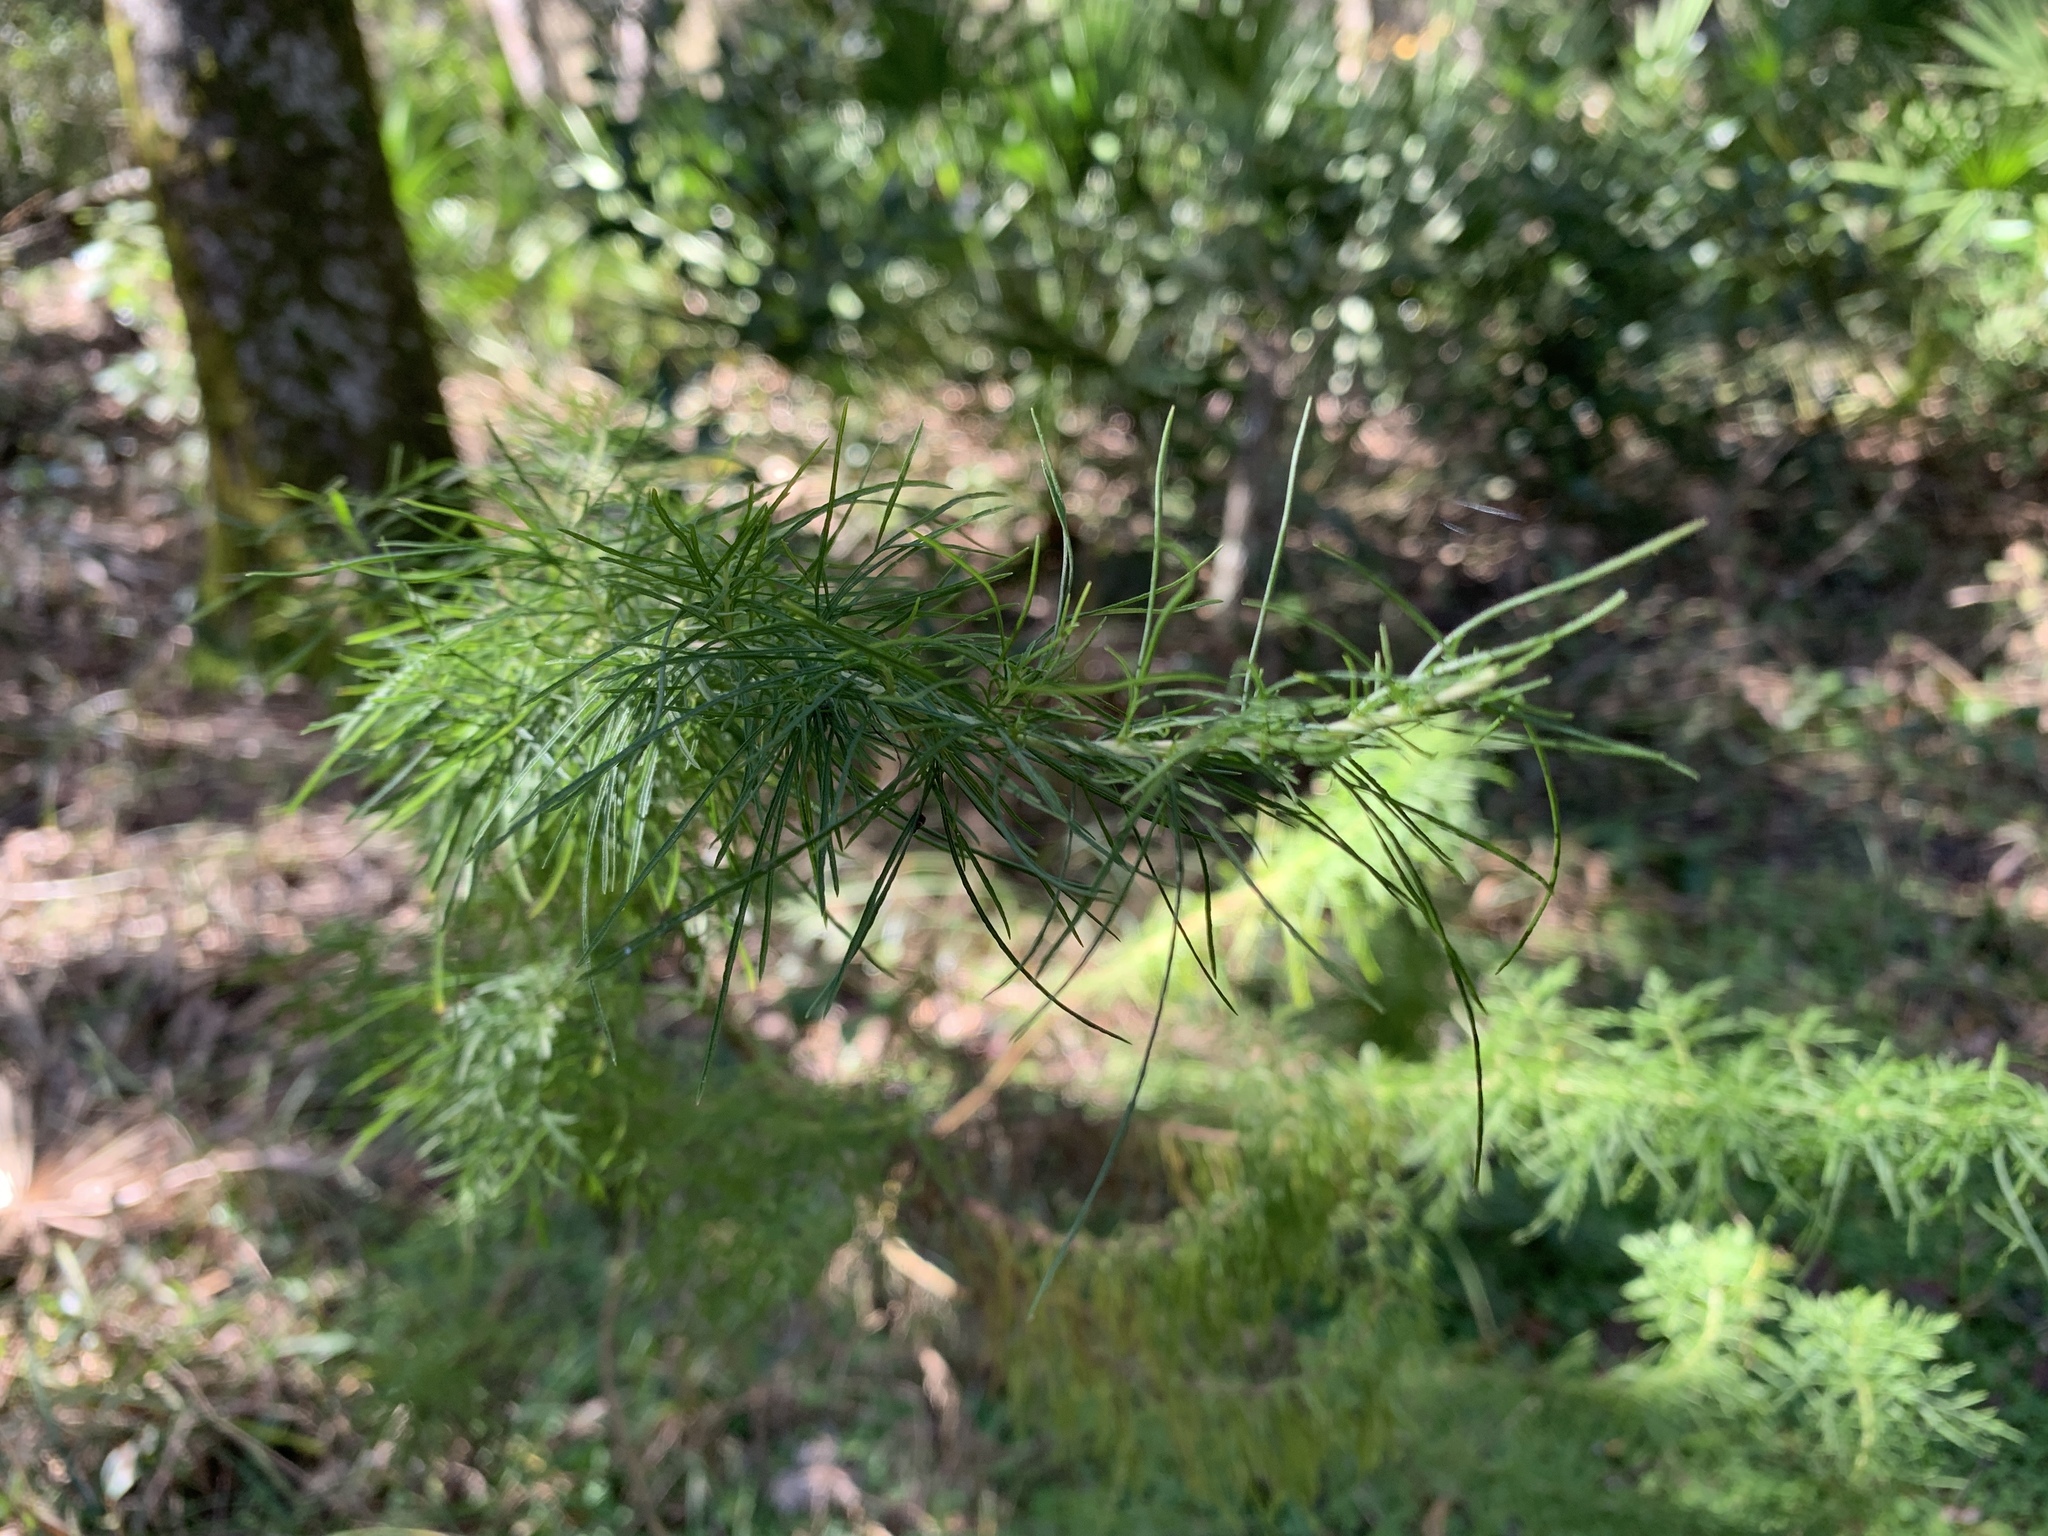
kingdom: Plantae
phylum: Tracheophyta
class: Magnoliopsida
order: Asterales
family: Asteraceae
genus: Eupatorium
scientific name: Eupatorium capillifolium
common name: Dog-fennel
